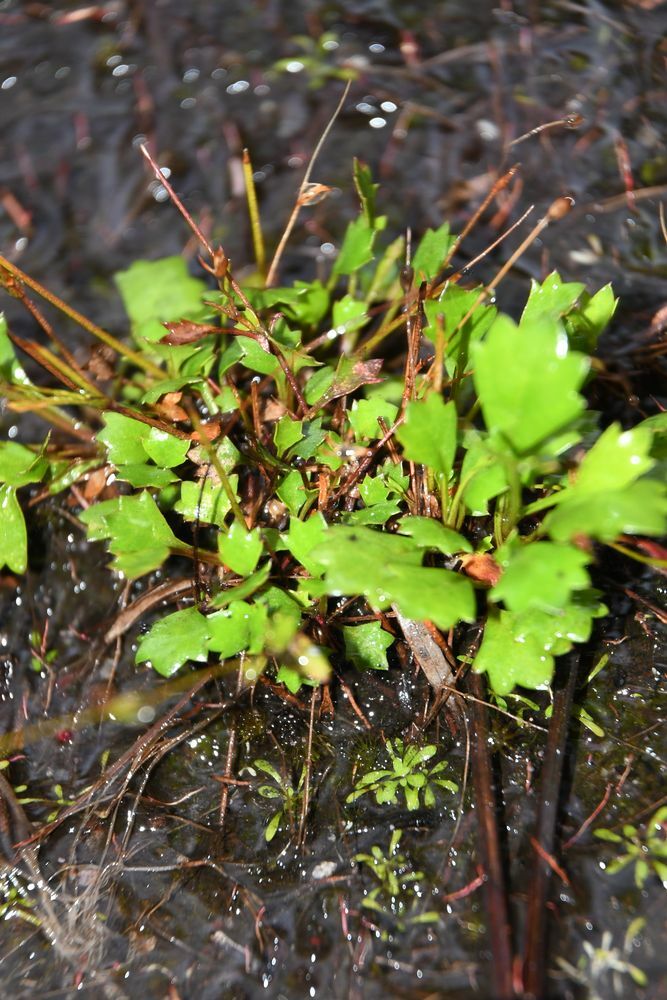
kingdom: Plantae
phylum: Tracheophyta
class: Magnoliopsida
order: Apiales
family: Apiaceae
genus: Actinotus
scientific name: Actinotus omnifertilis
